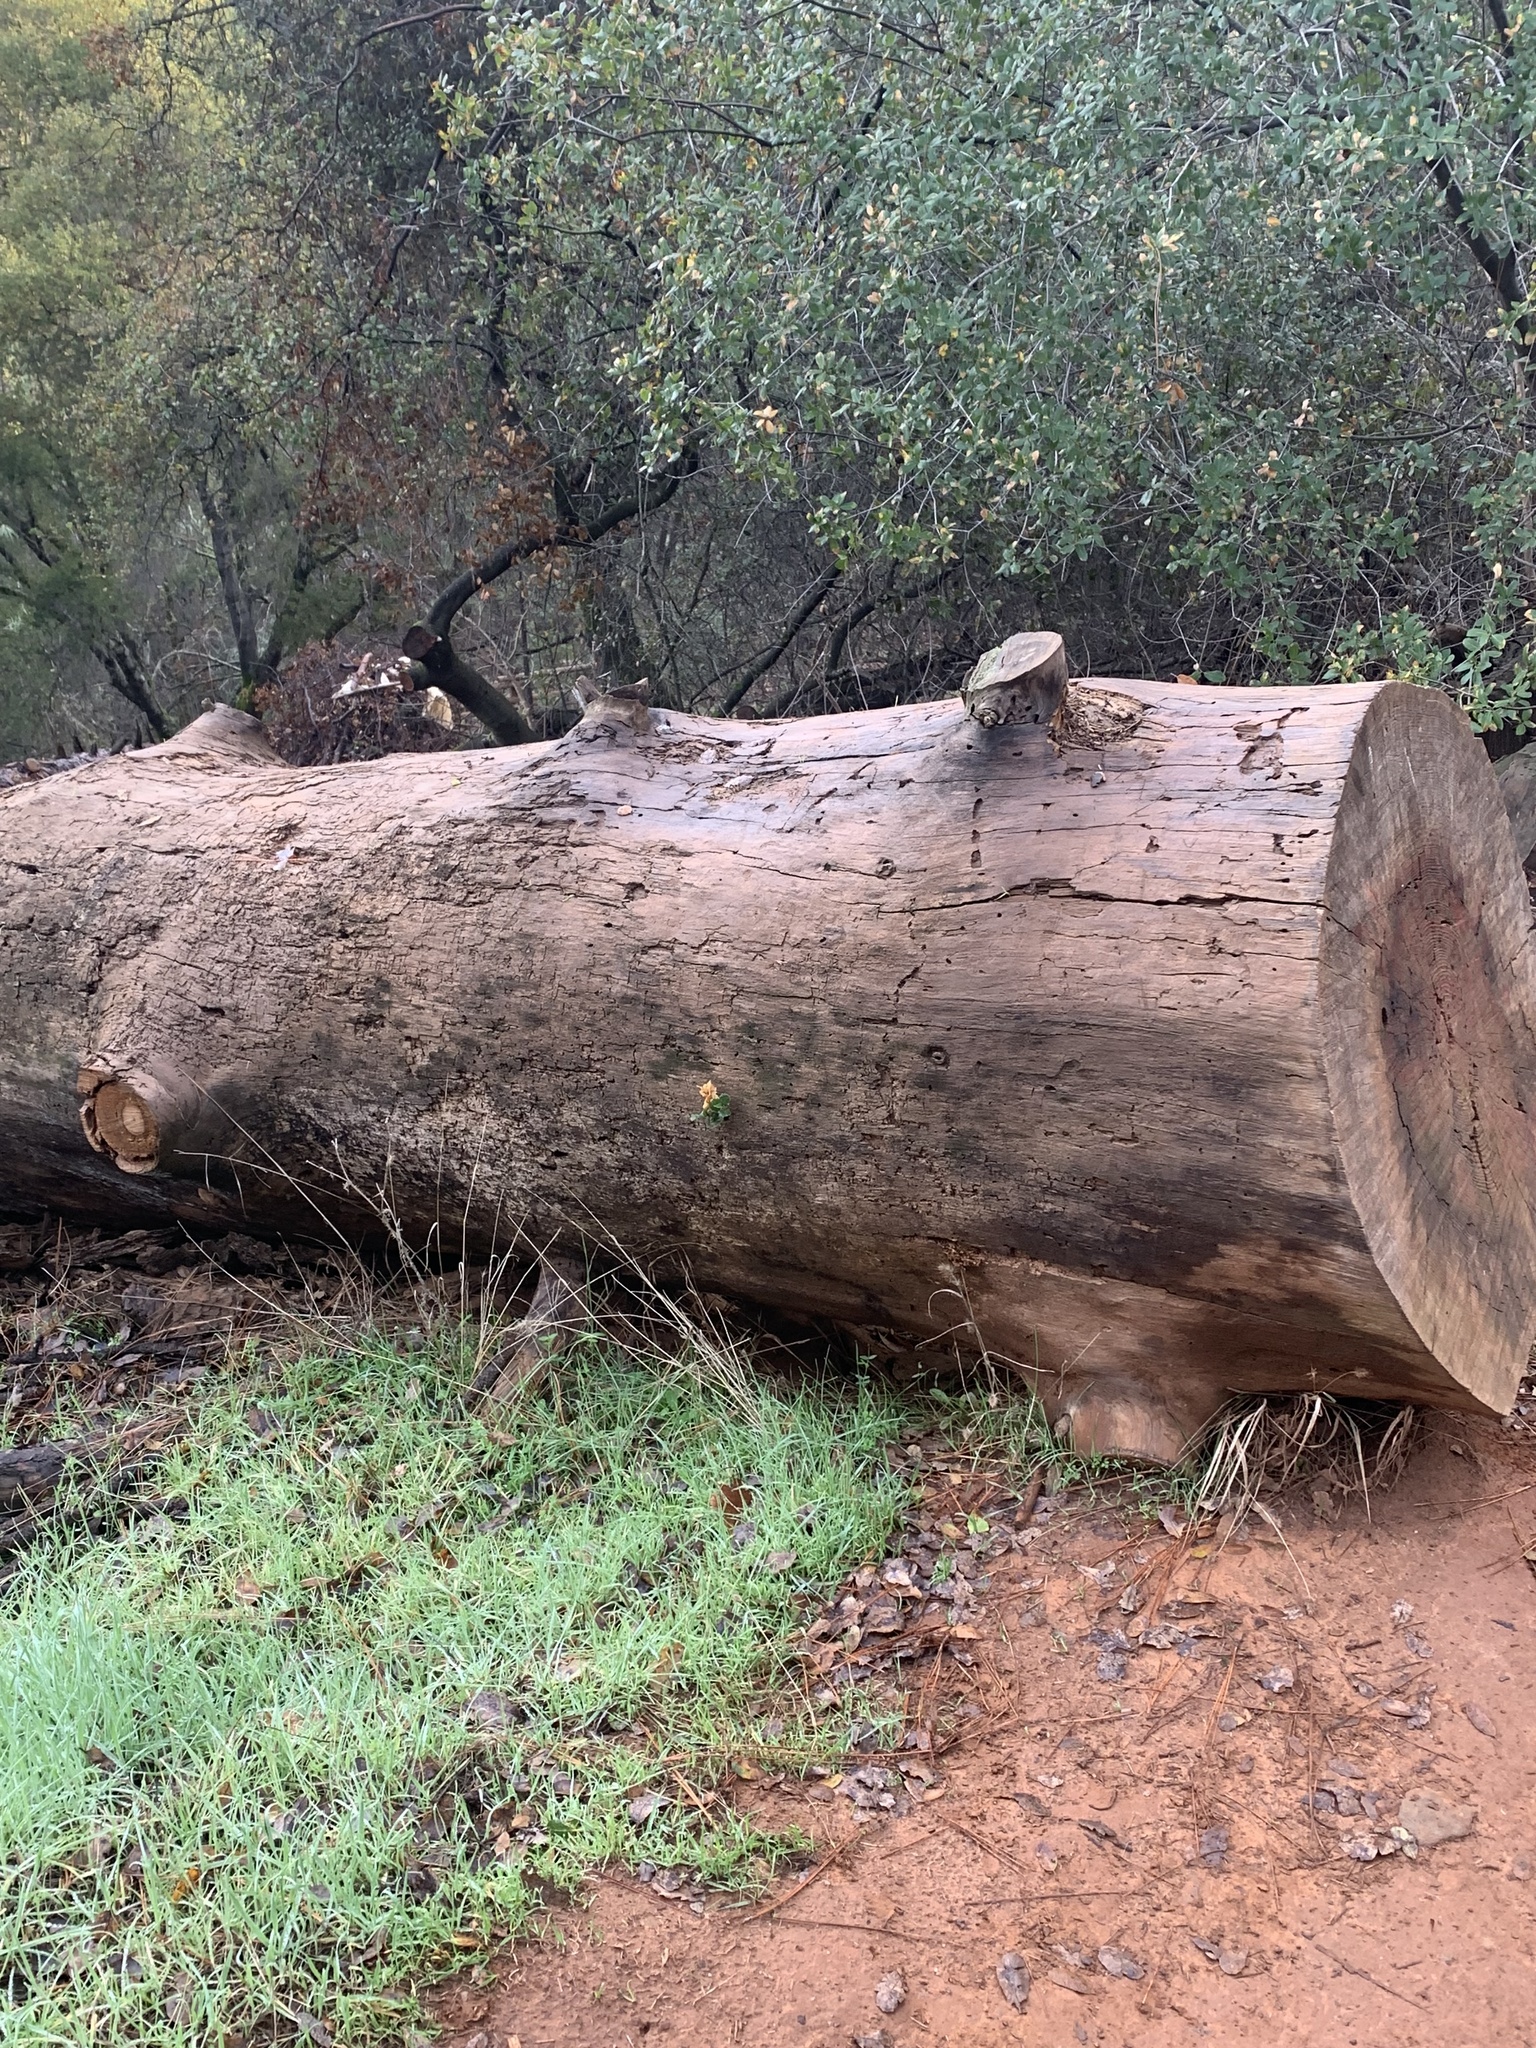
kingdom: Plantae
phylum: Tracheophyta
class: Magnoliopsida
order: Fagales
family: Fagaceae
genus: Quercus
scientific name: Quercus wislizeni
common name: Interior live oak
